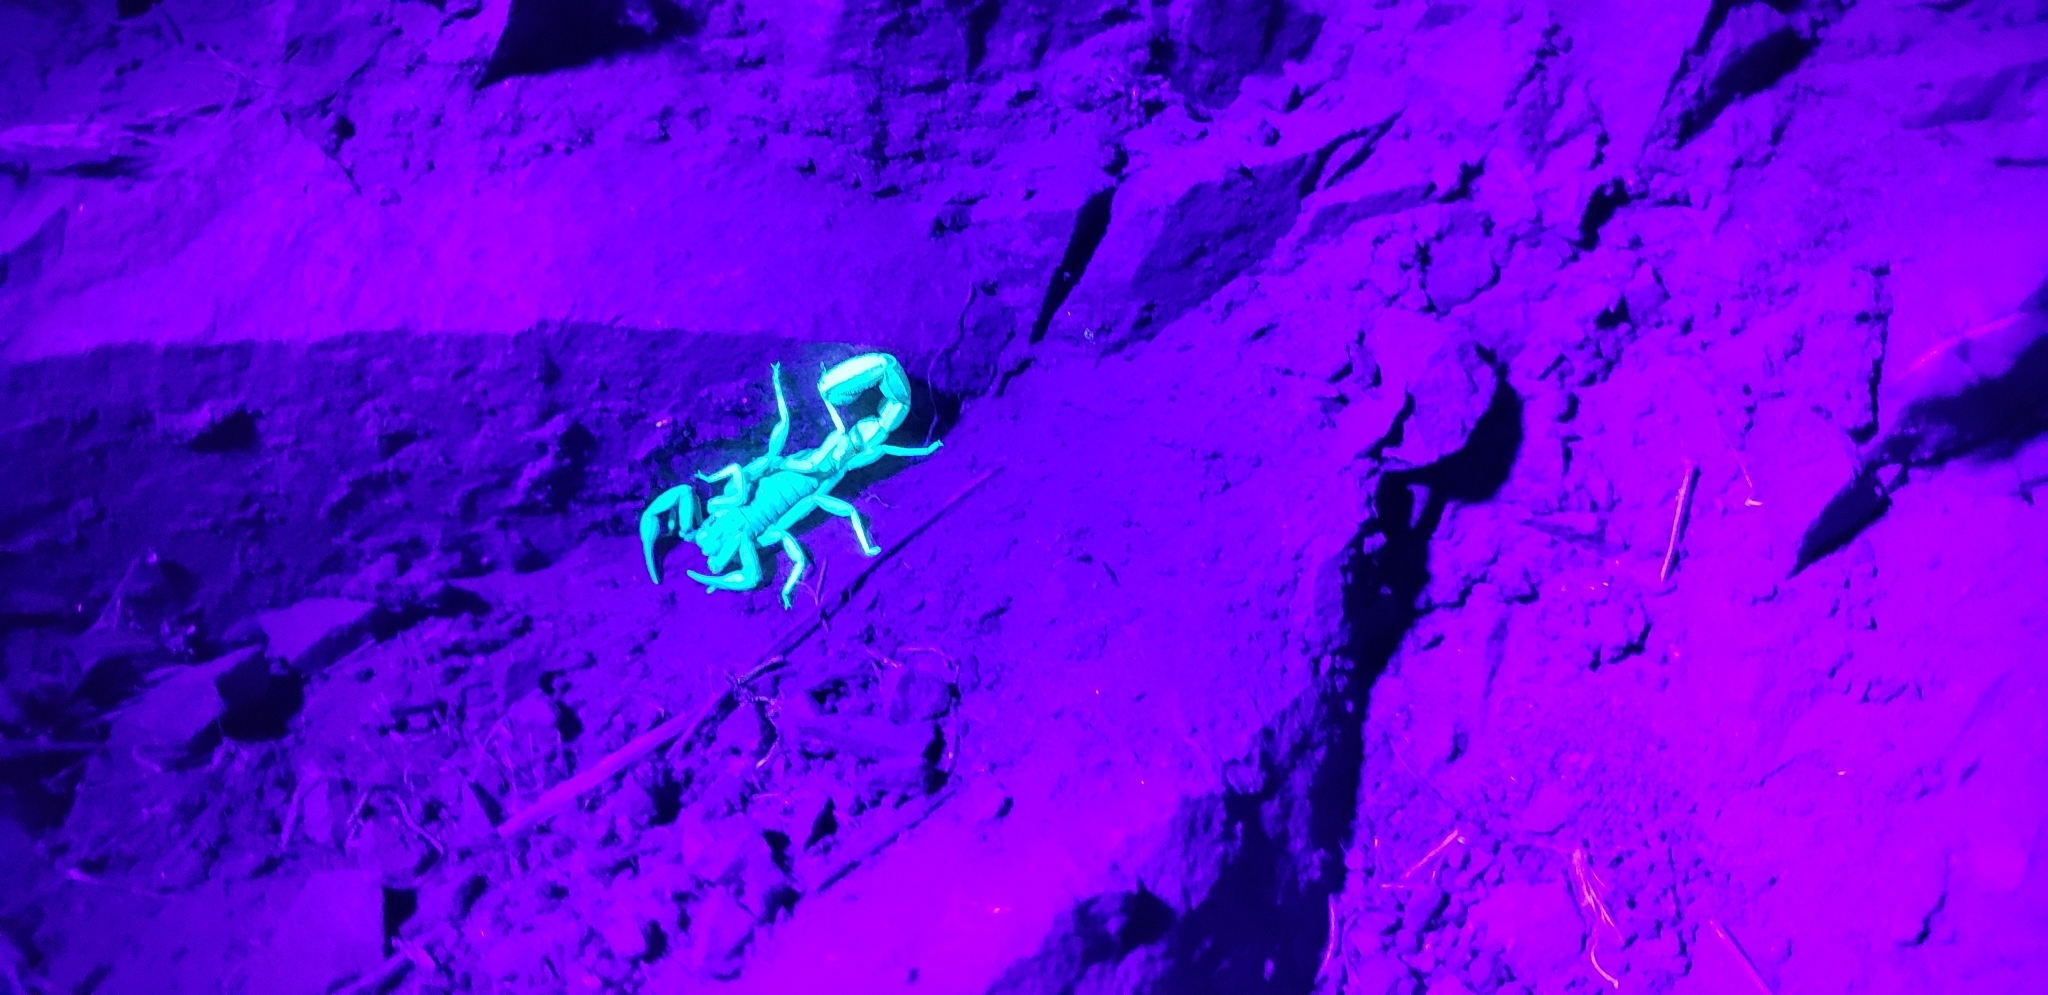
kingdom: Animalia
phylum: Arthropoda
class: Arachnida
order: Scorpiones
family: Vaejovidae
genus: Paravaejovis
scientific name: Paravaejovis puritanus
